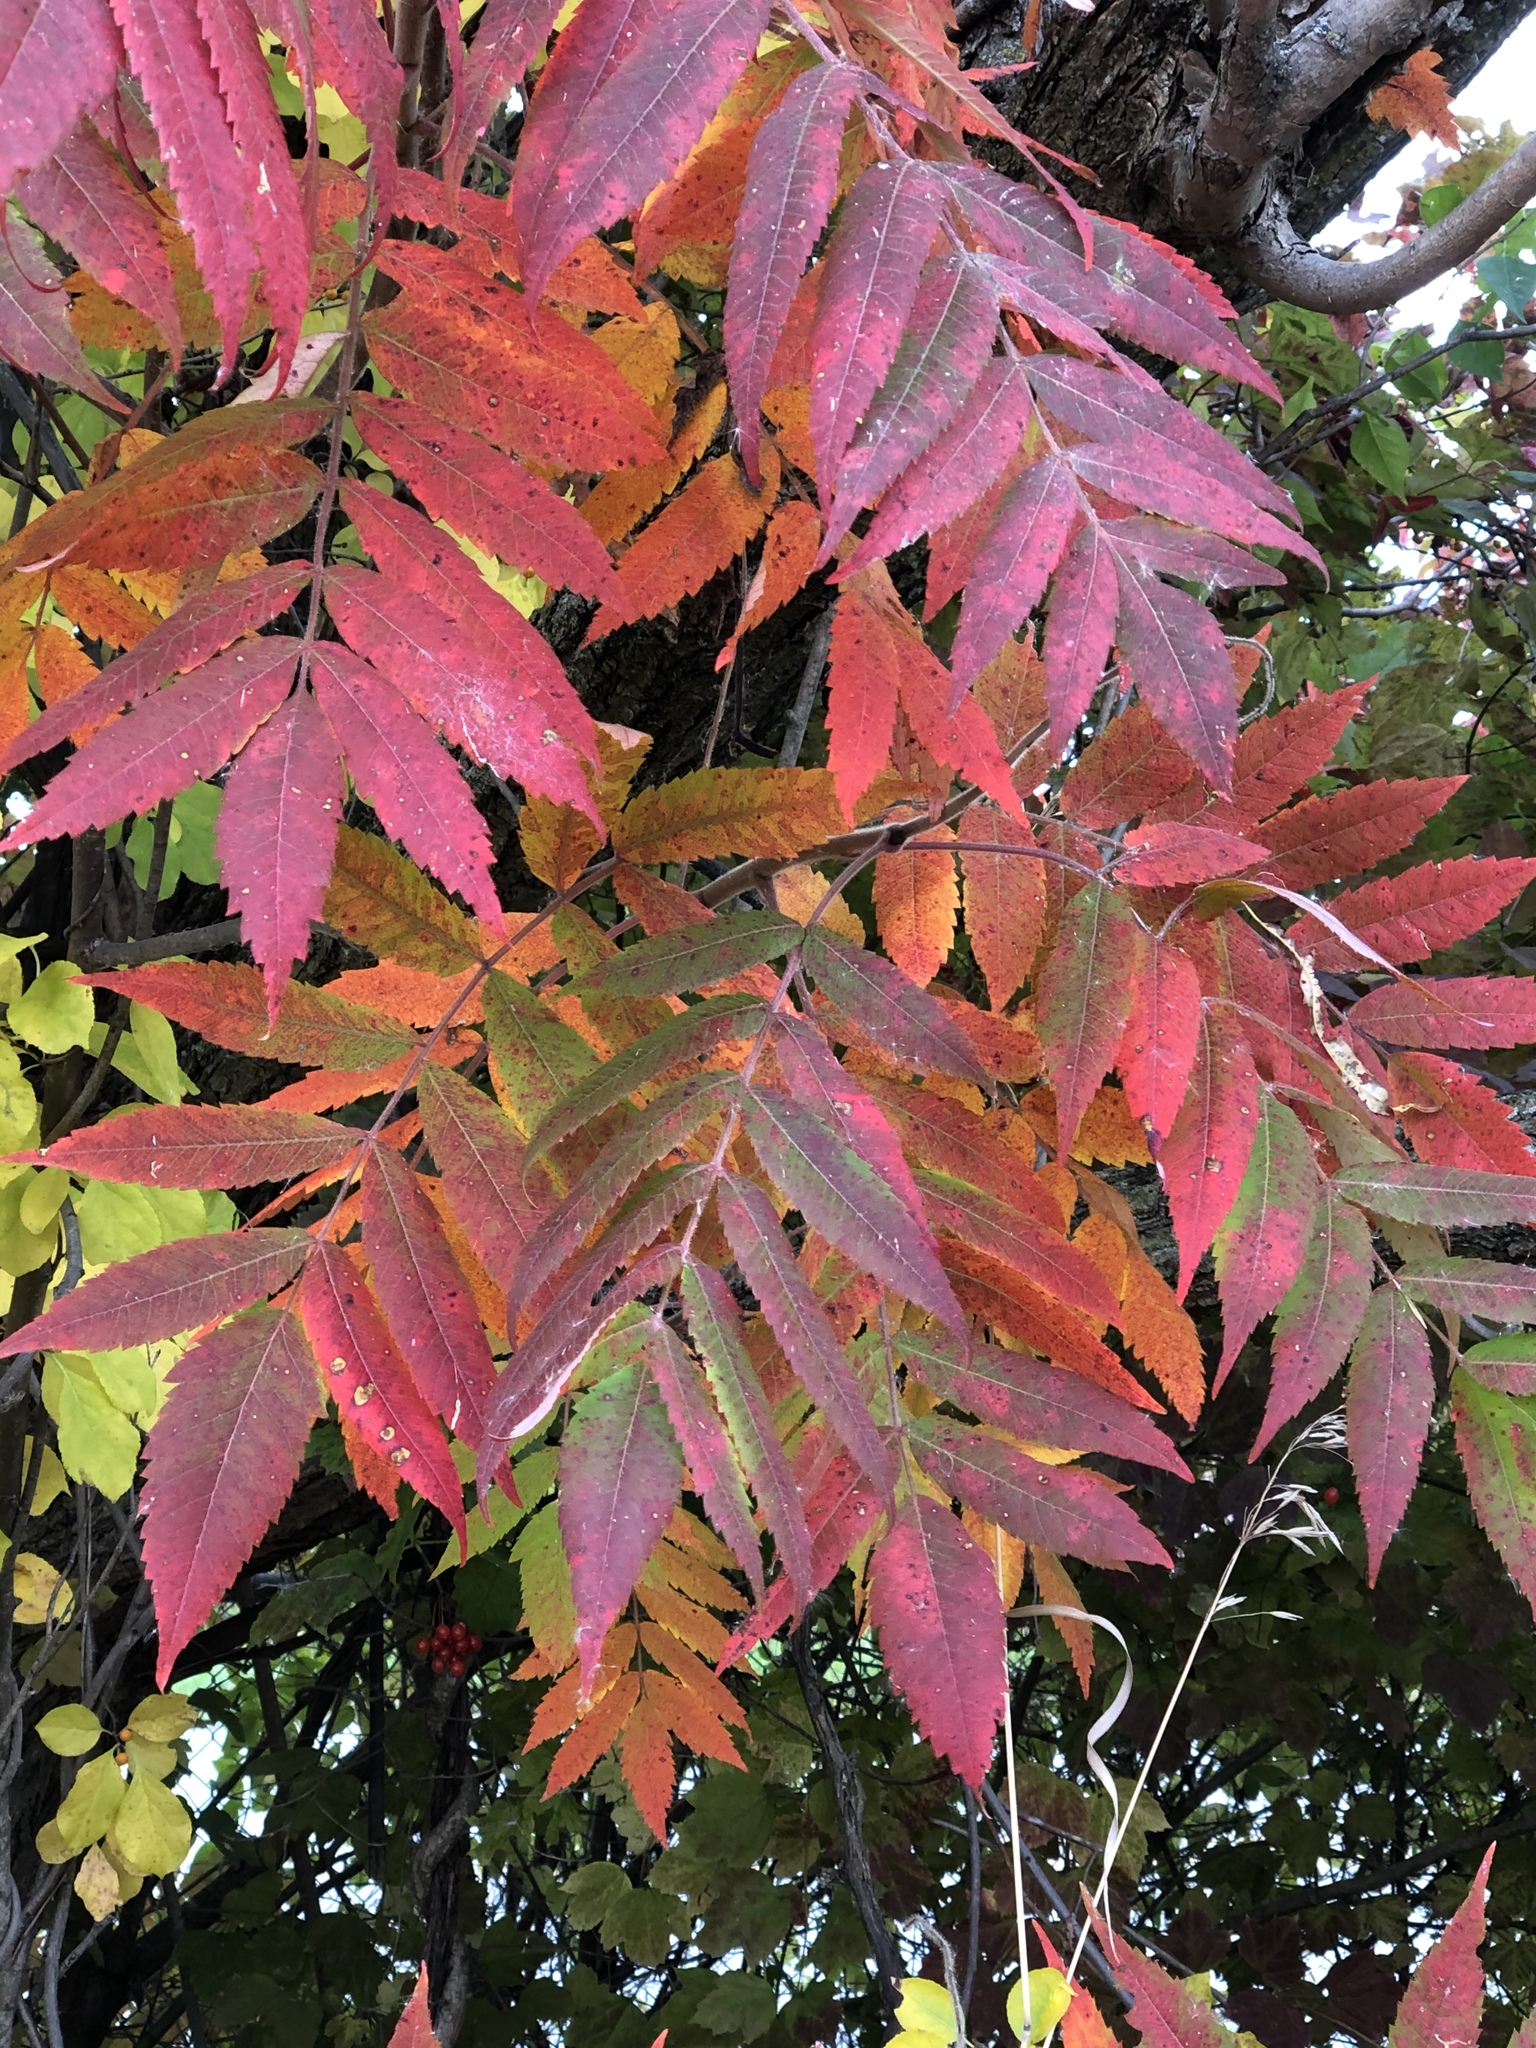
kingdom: Plantae
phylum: Tracheophyta
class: Magnoliopsida
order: Sapindales
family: Anacardiaceae
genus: Rhus
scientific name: Rhus typhina
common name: Staghorn sumac
